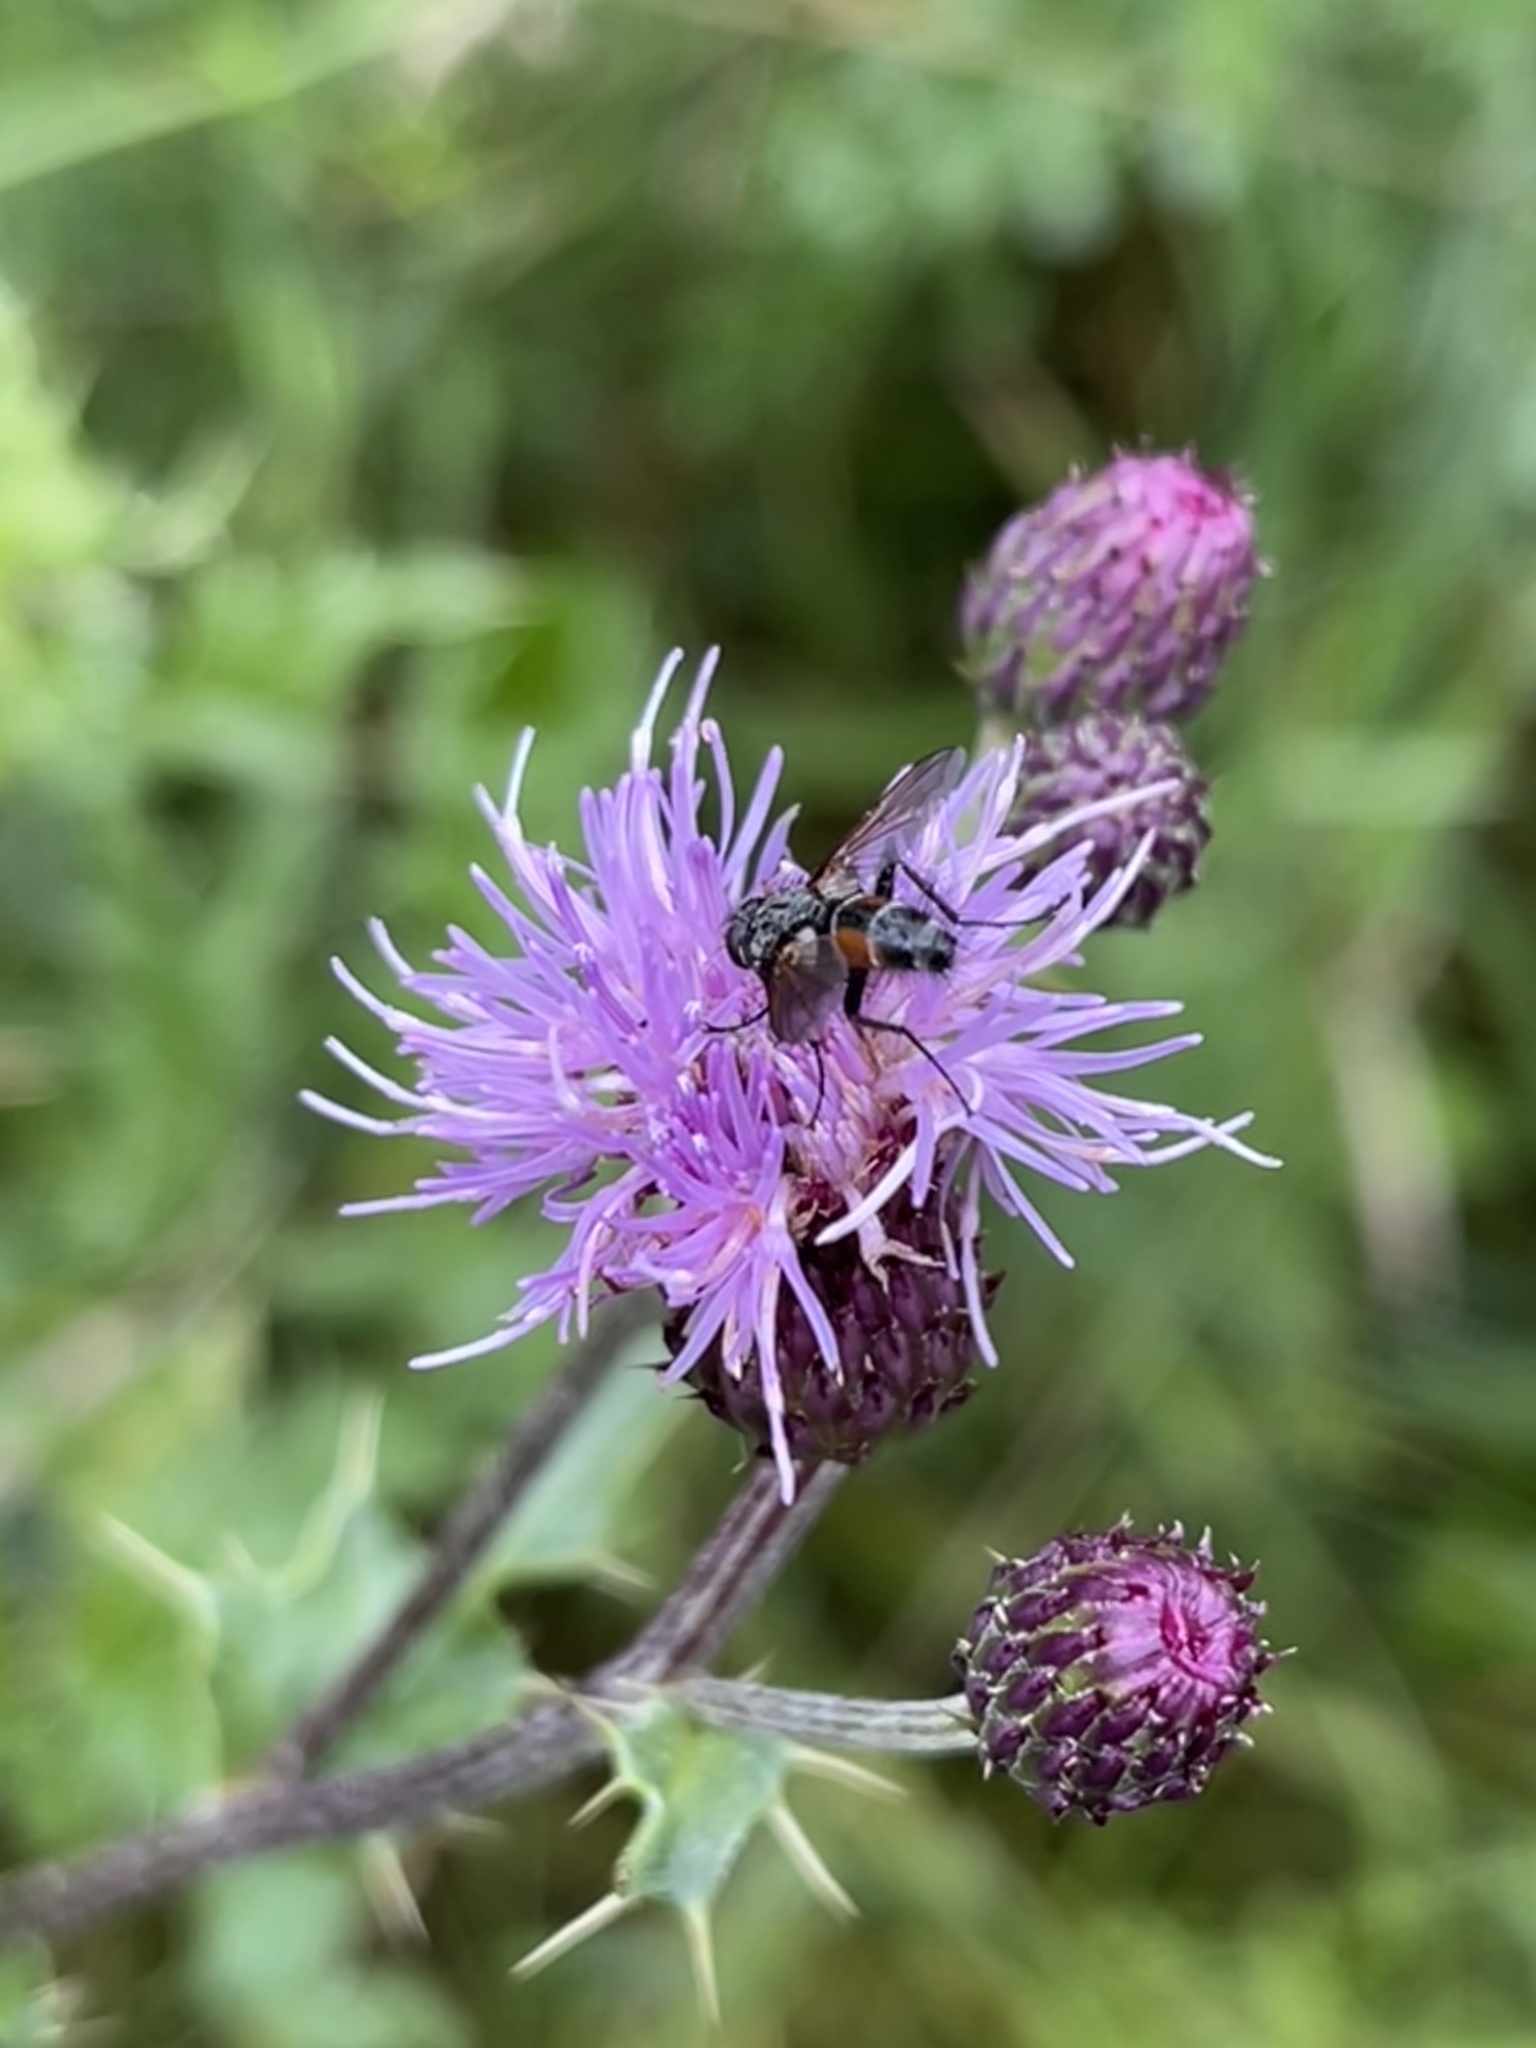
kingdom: Animalia
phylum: Arthropoda
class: Insecta
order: Diptera
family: Tachinidae
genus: Eriothrix
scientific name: Eriothrix rufomaculatus
